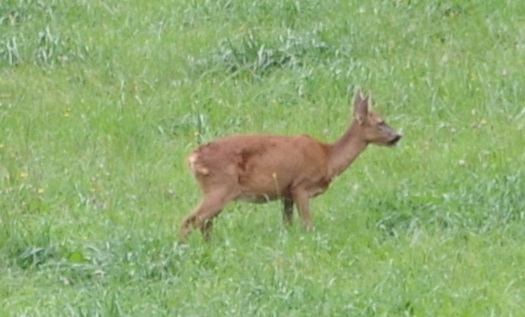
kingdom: Animalia
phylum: Chordata
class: Mammalia
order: Artiodactyla
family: Cervidae
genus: Capreolus
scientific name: Capreolus capreolus
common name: Western roe deer
